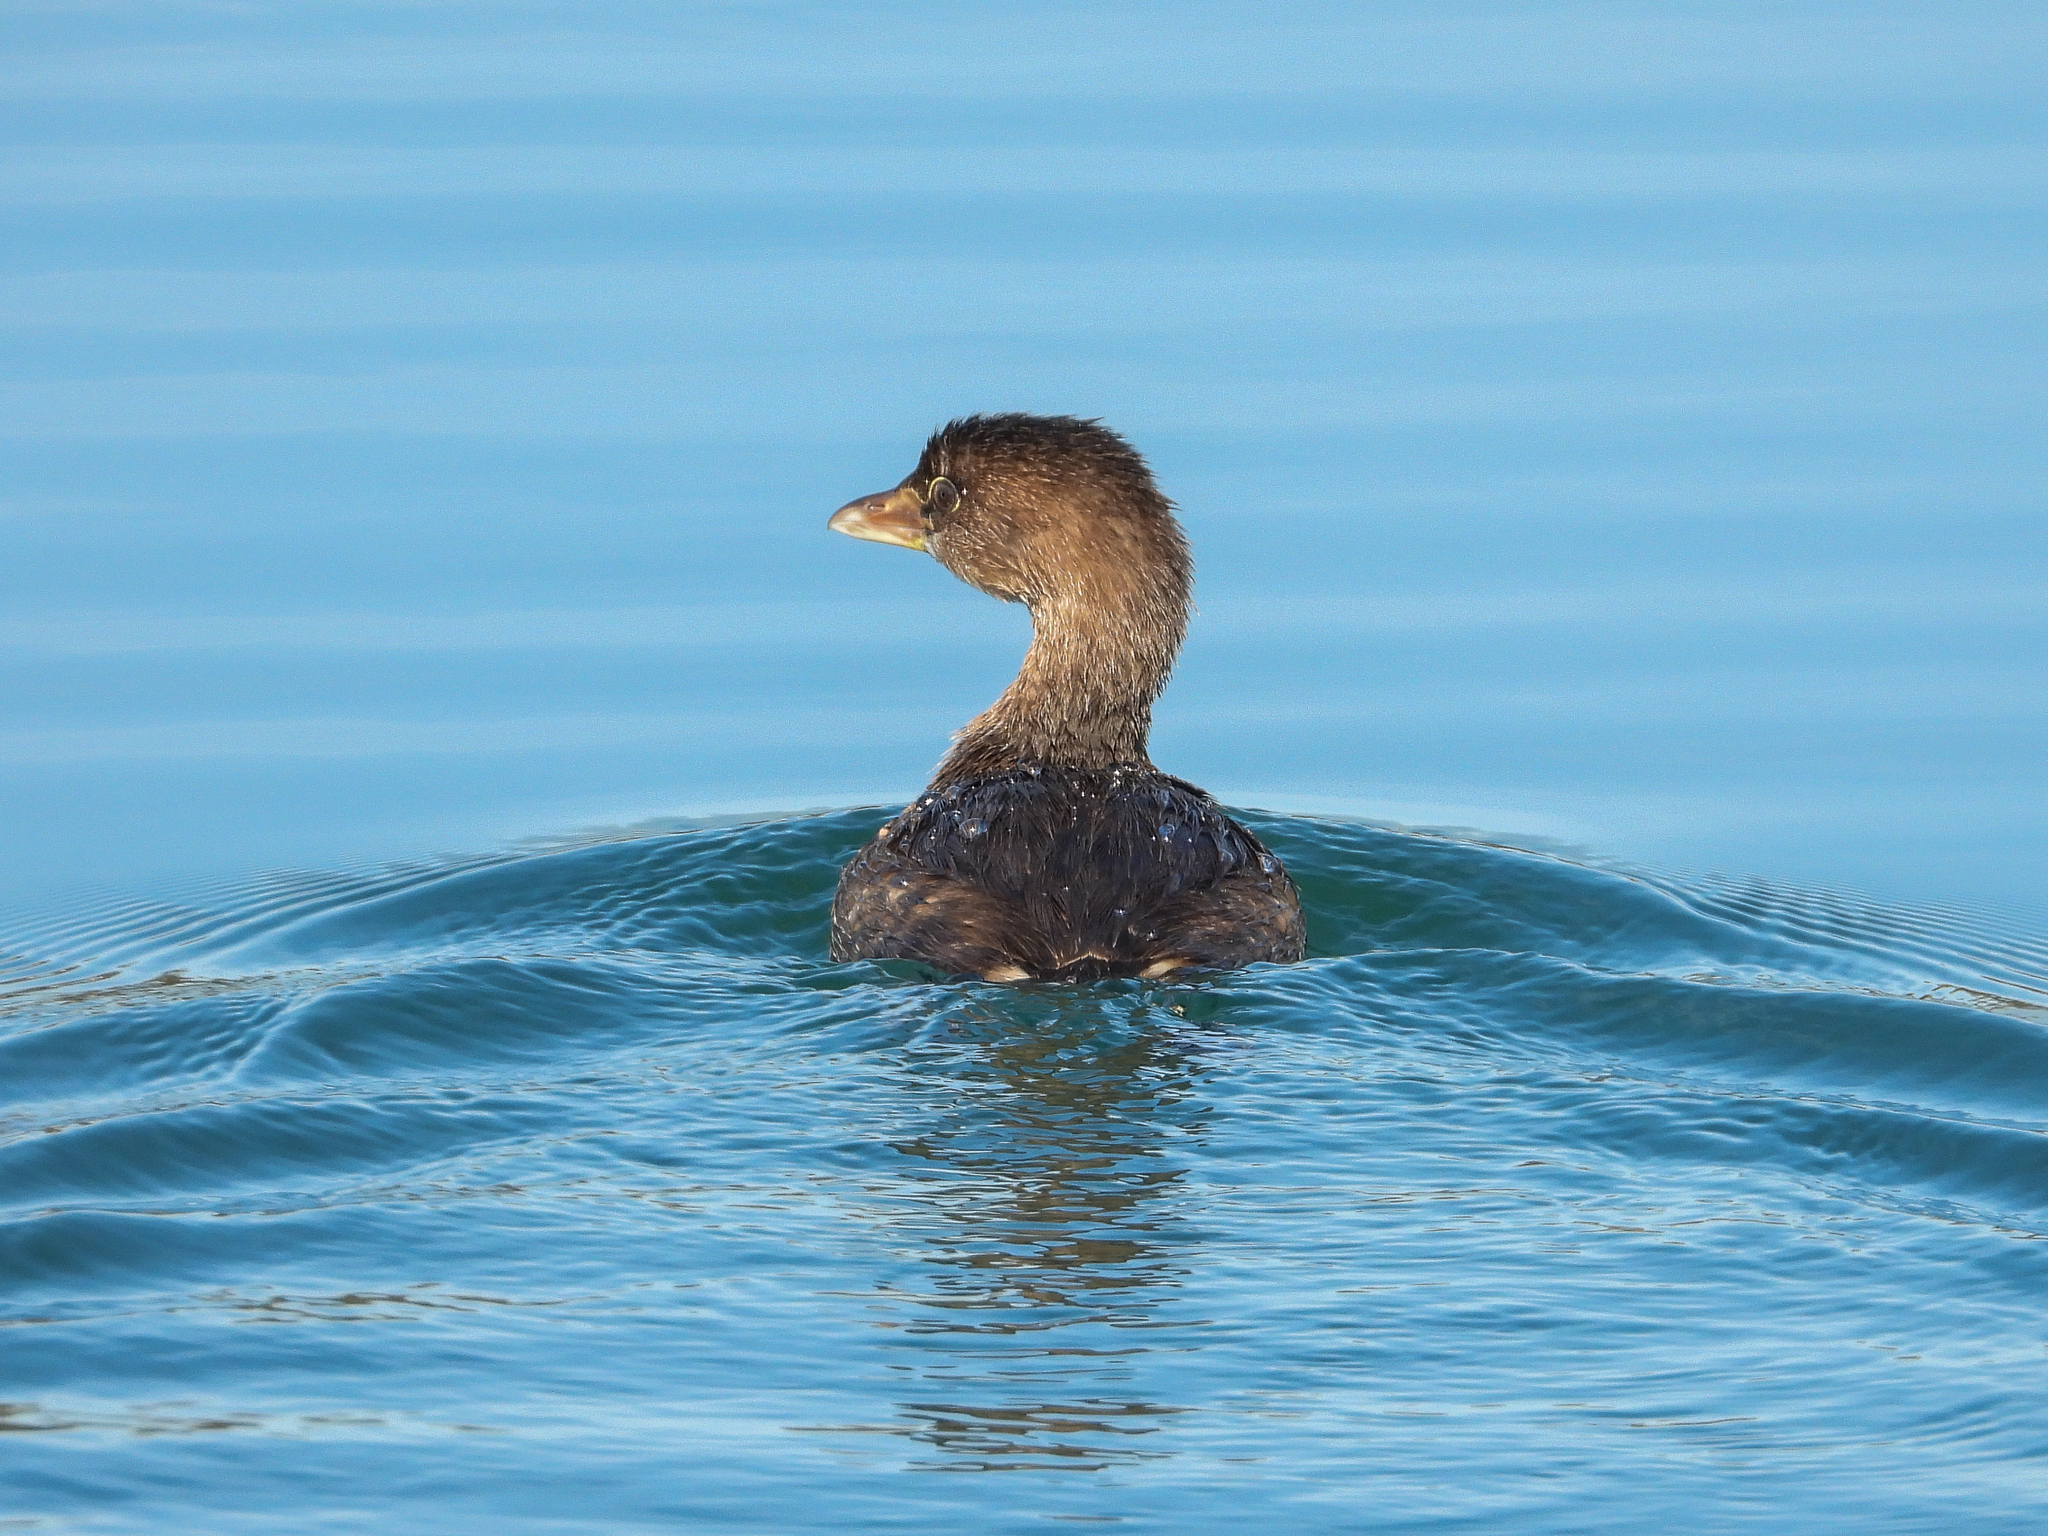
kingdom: Animalia
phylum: Chordata
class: Aves
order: Podicipediformes
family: Podicipedidae
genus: Podilymbus
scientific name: Podilymbus podiceps
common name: Pied-billed grebe
